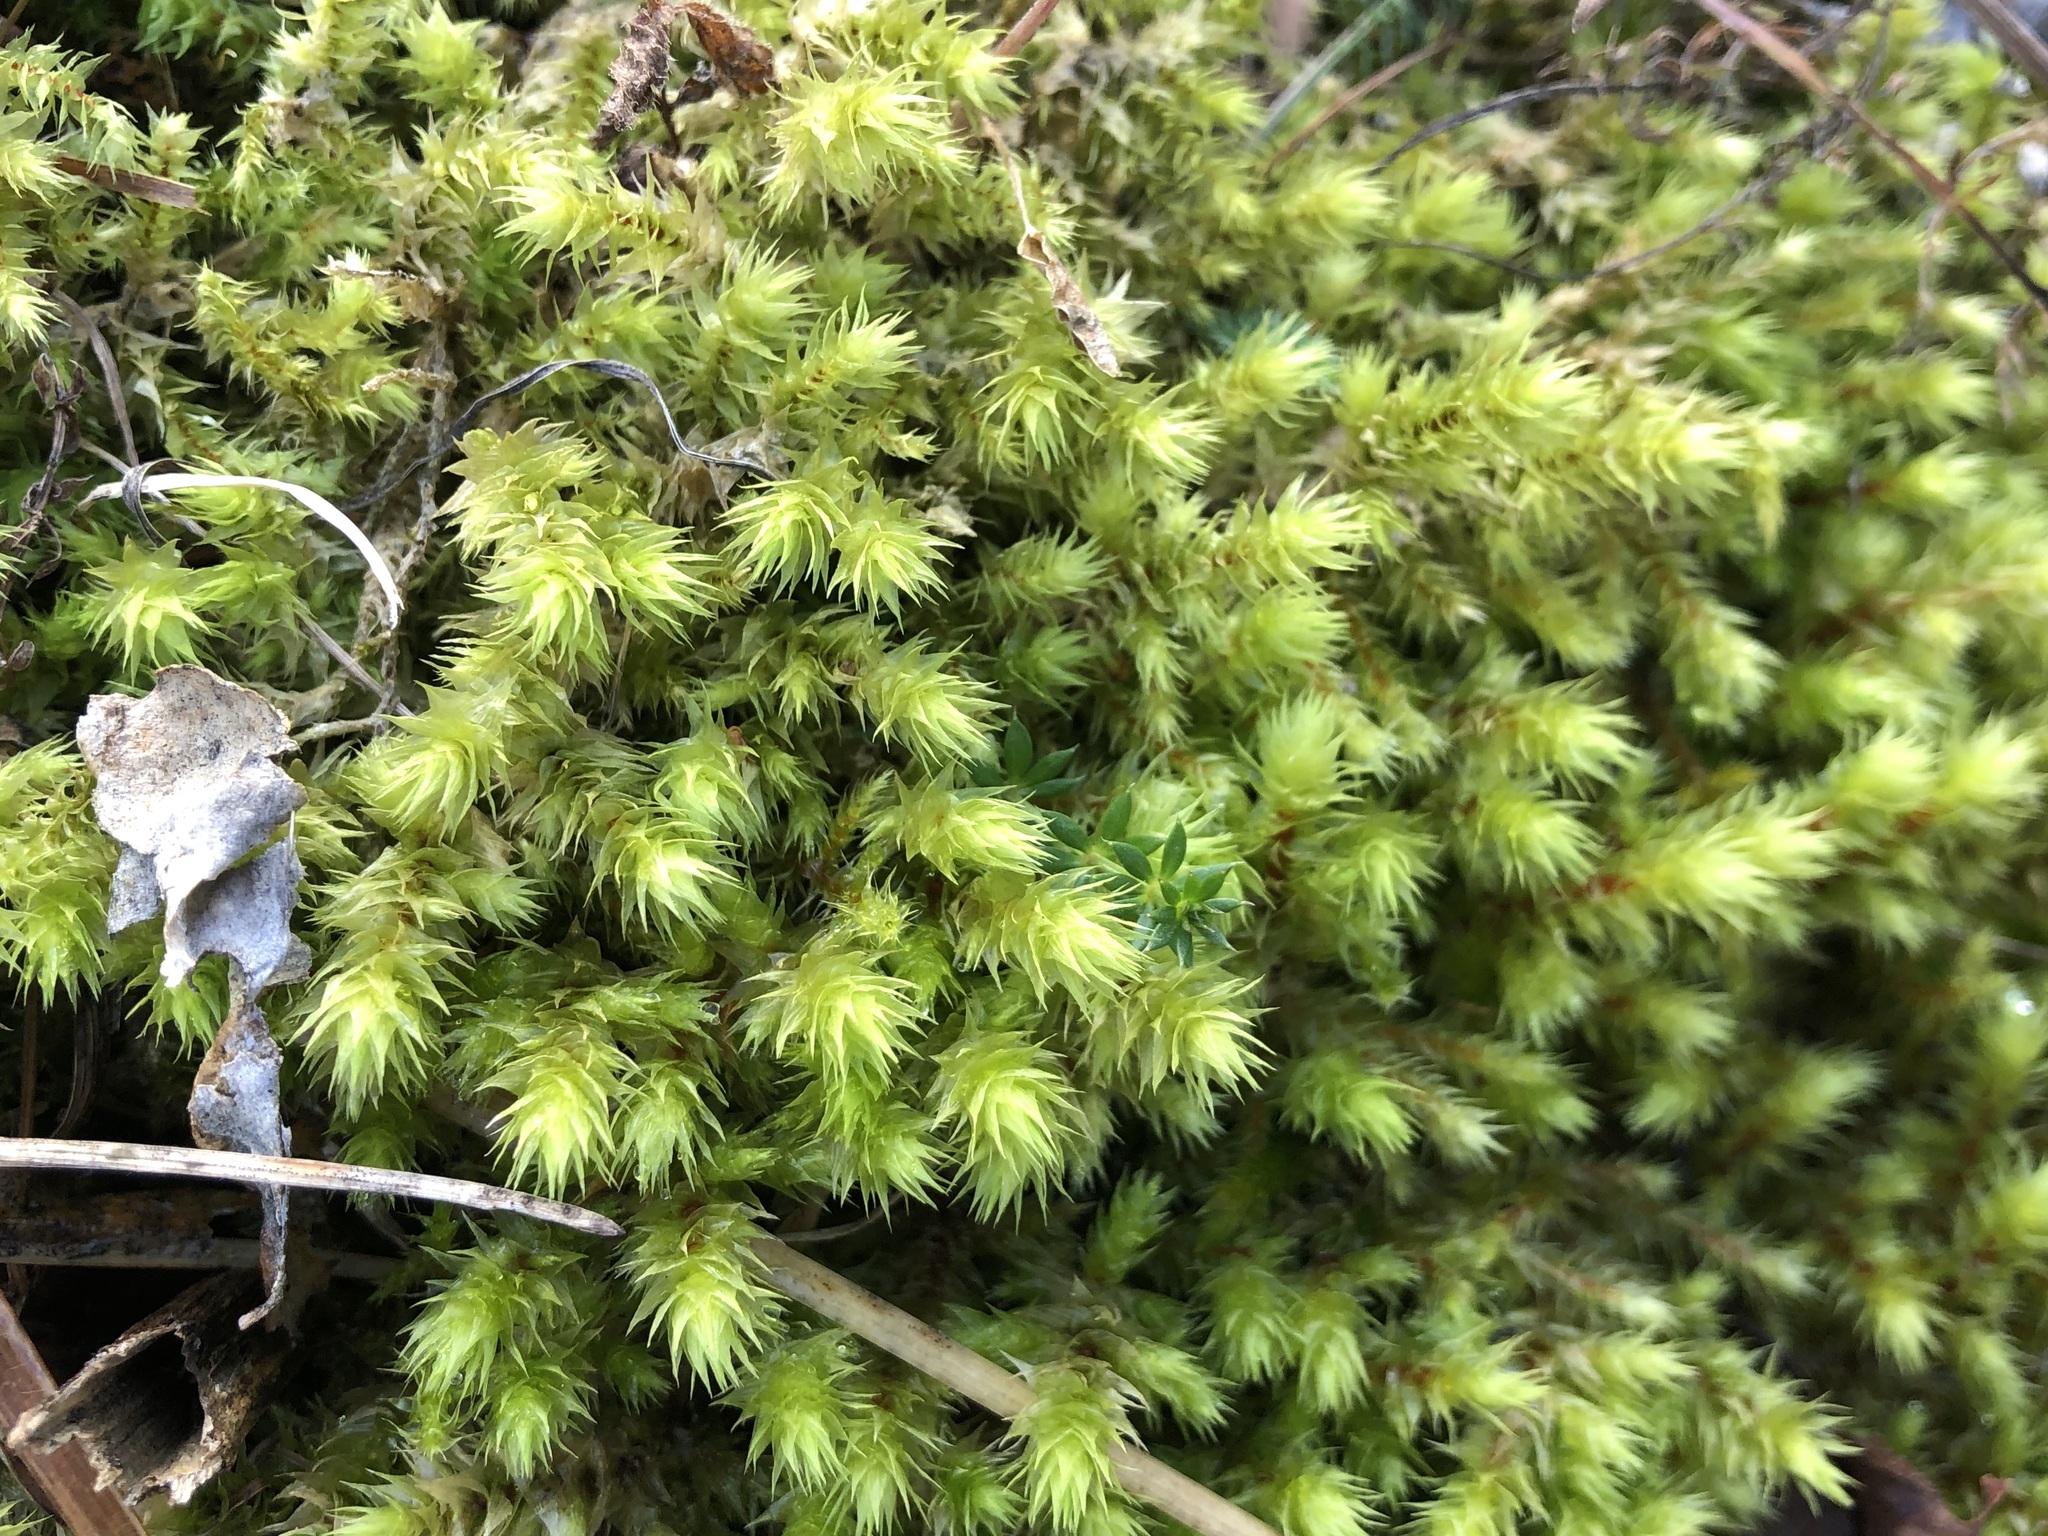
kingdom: Plantae
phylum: Bryophyta
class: Bryopsida
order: Hypnales
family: Hylocomiaceae
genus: Hylocomiadelphus
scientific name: Hylocomiadelphus triquetrus
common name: Rough goose neck moss
